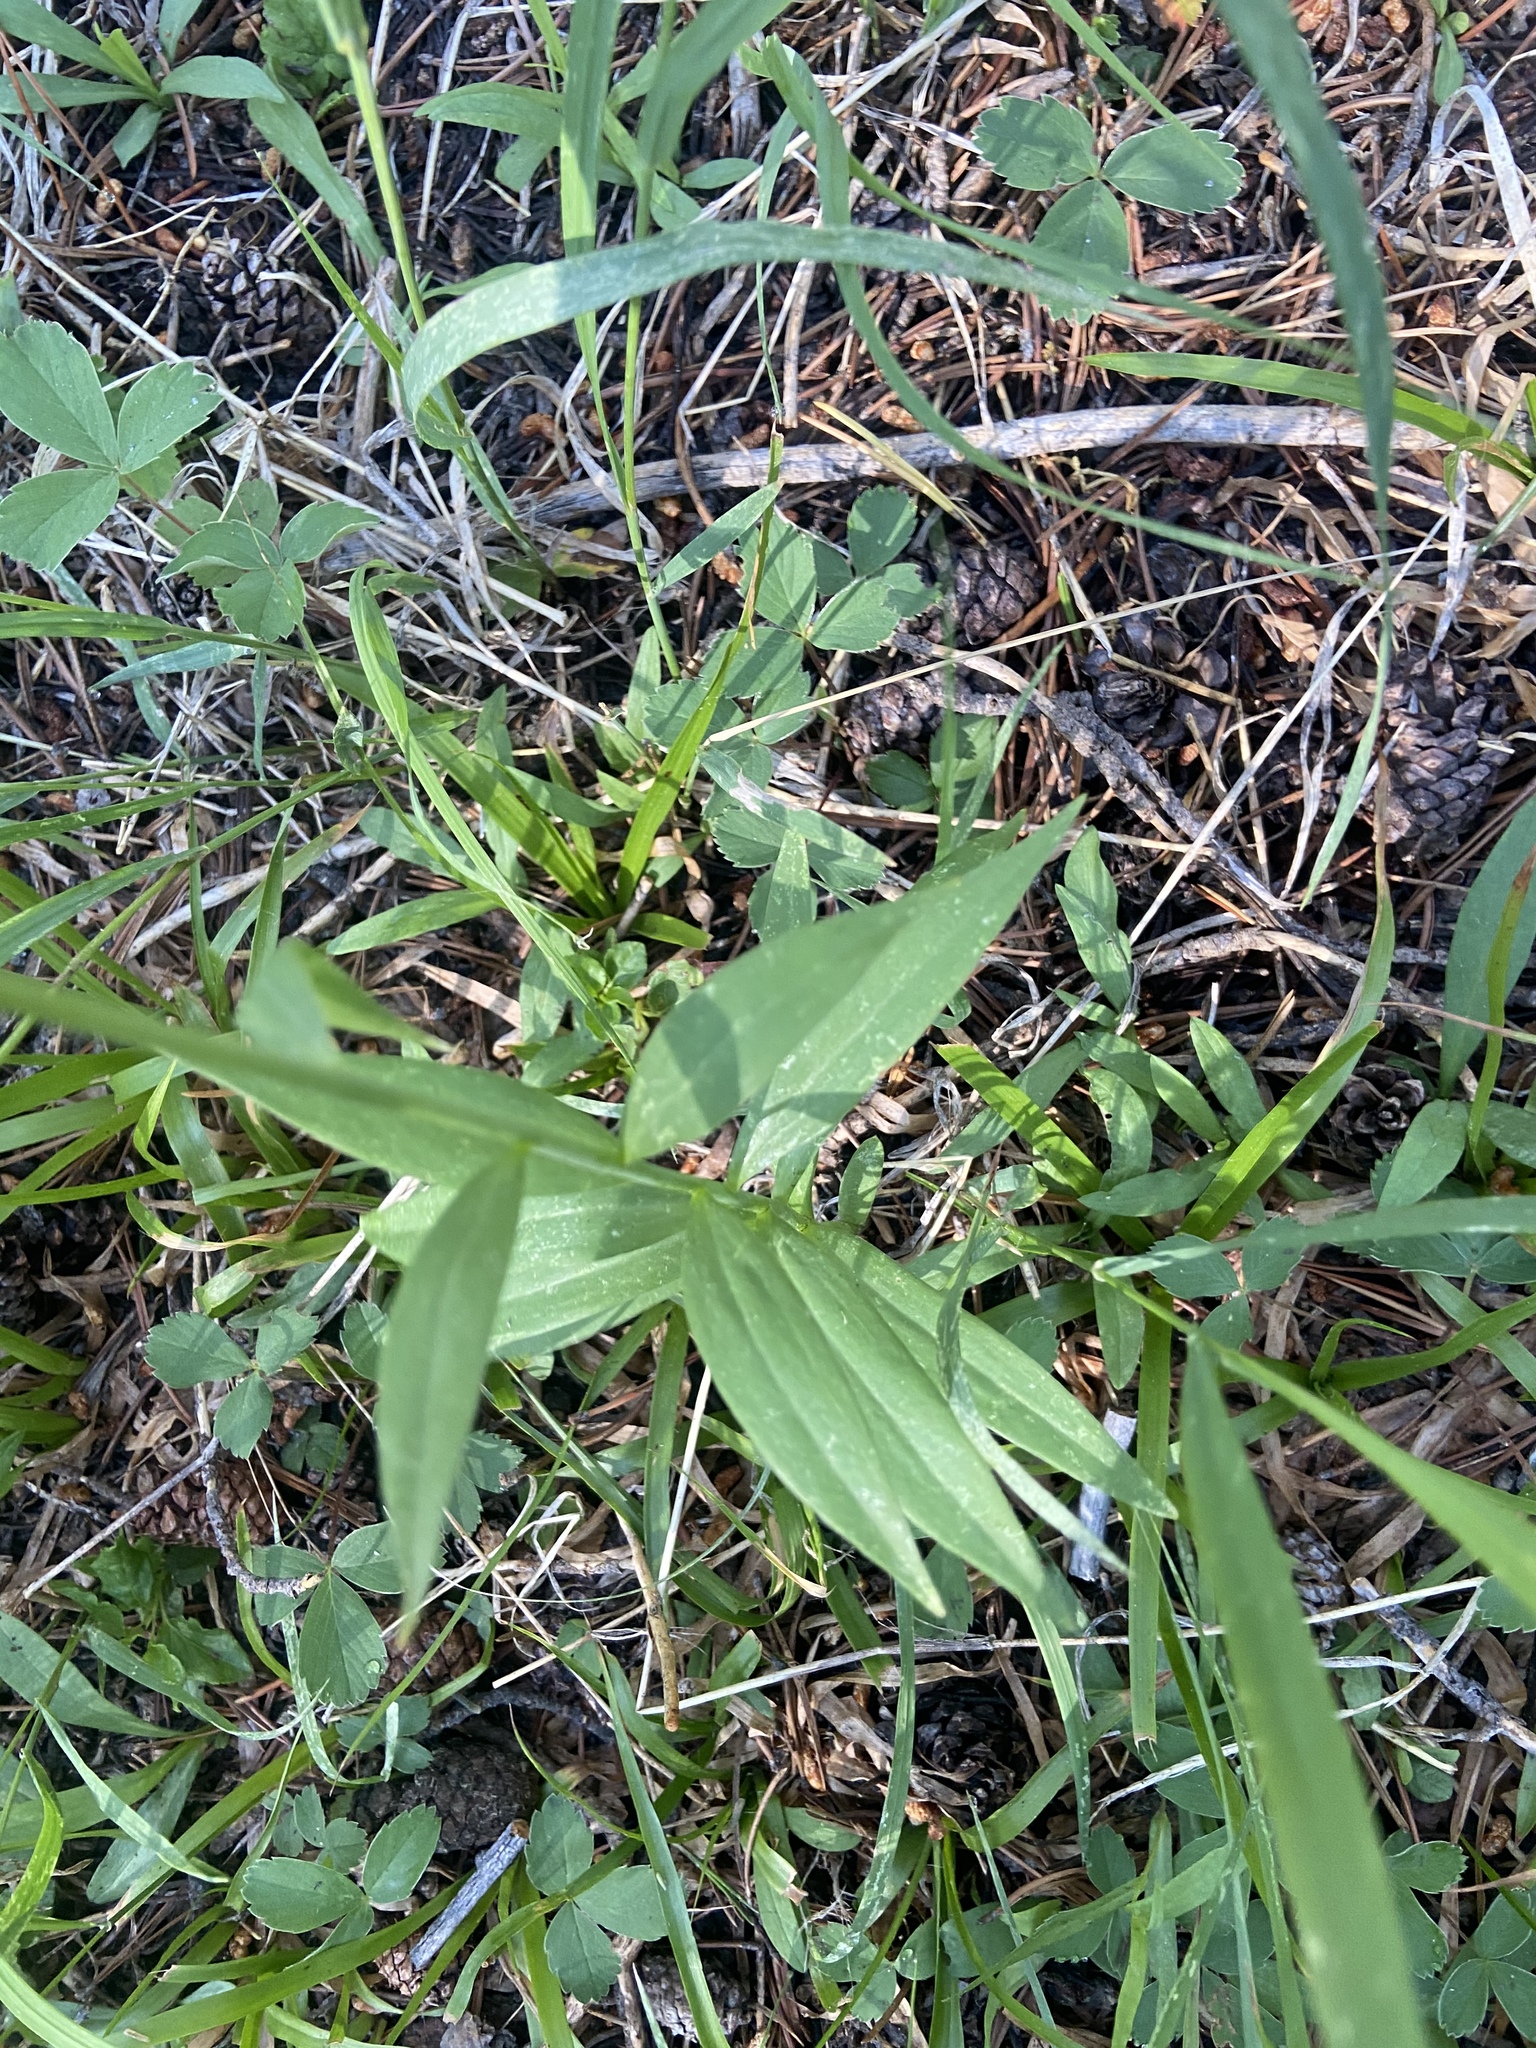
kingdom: Plantae
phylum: Tracheophyta
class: Liliopsida
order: Liliales
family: Liliaceae
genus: Lilium
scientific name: Lilium parvum
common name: Alpine lily
